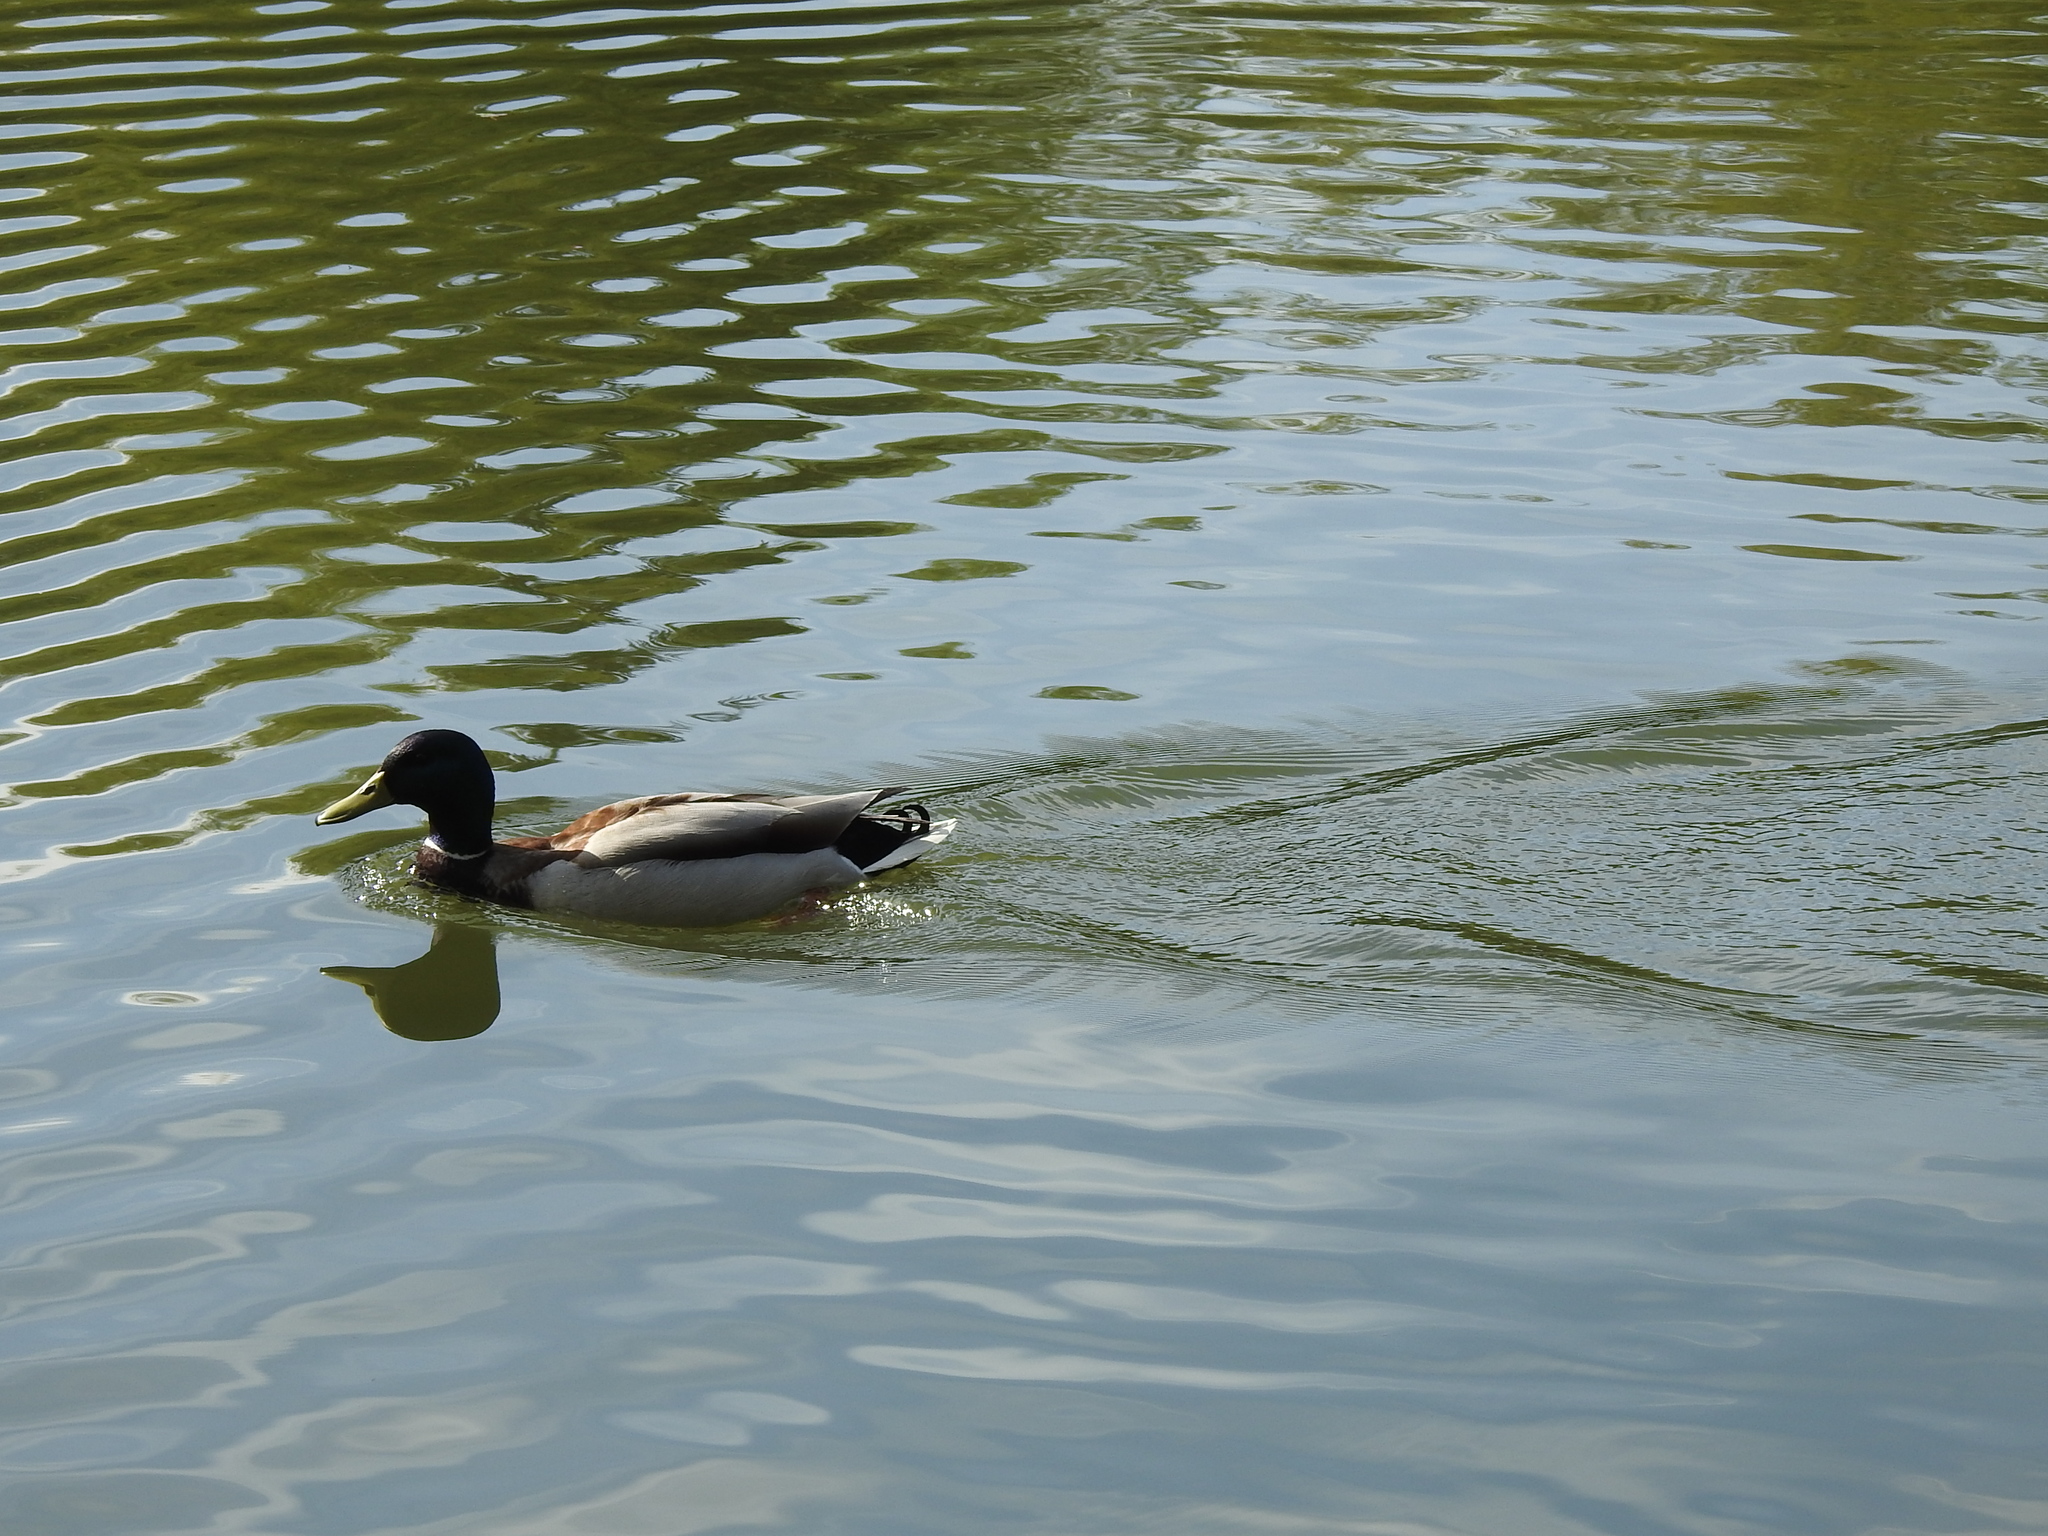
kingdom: Animalia
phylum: Chordata
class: Aves
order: Anseriformes
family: Anatidae
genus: Anas
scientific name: Anas platyrhynchos
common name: Mallard
